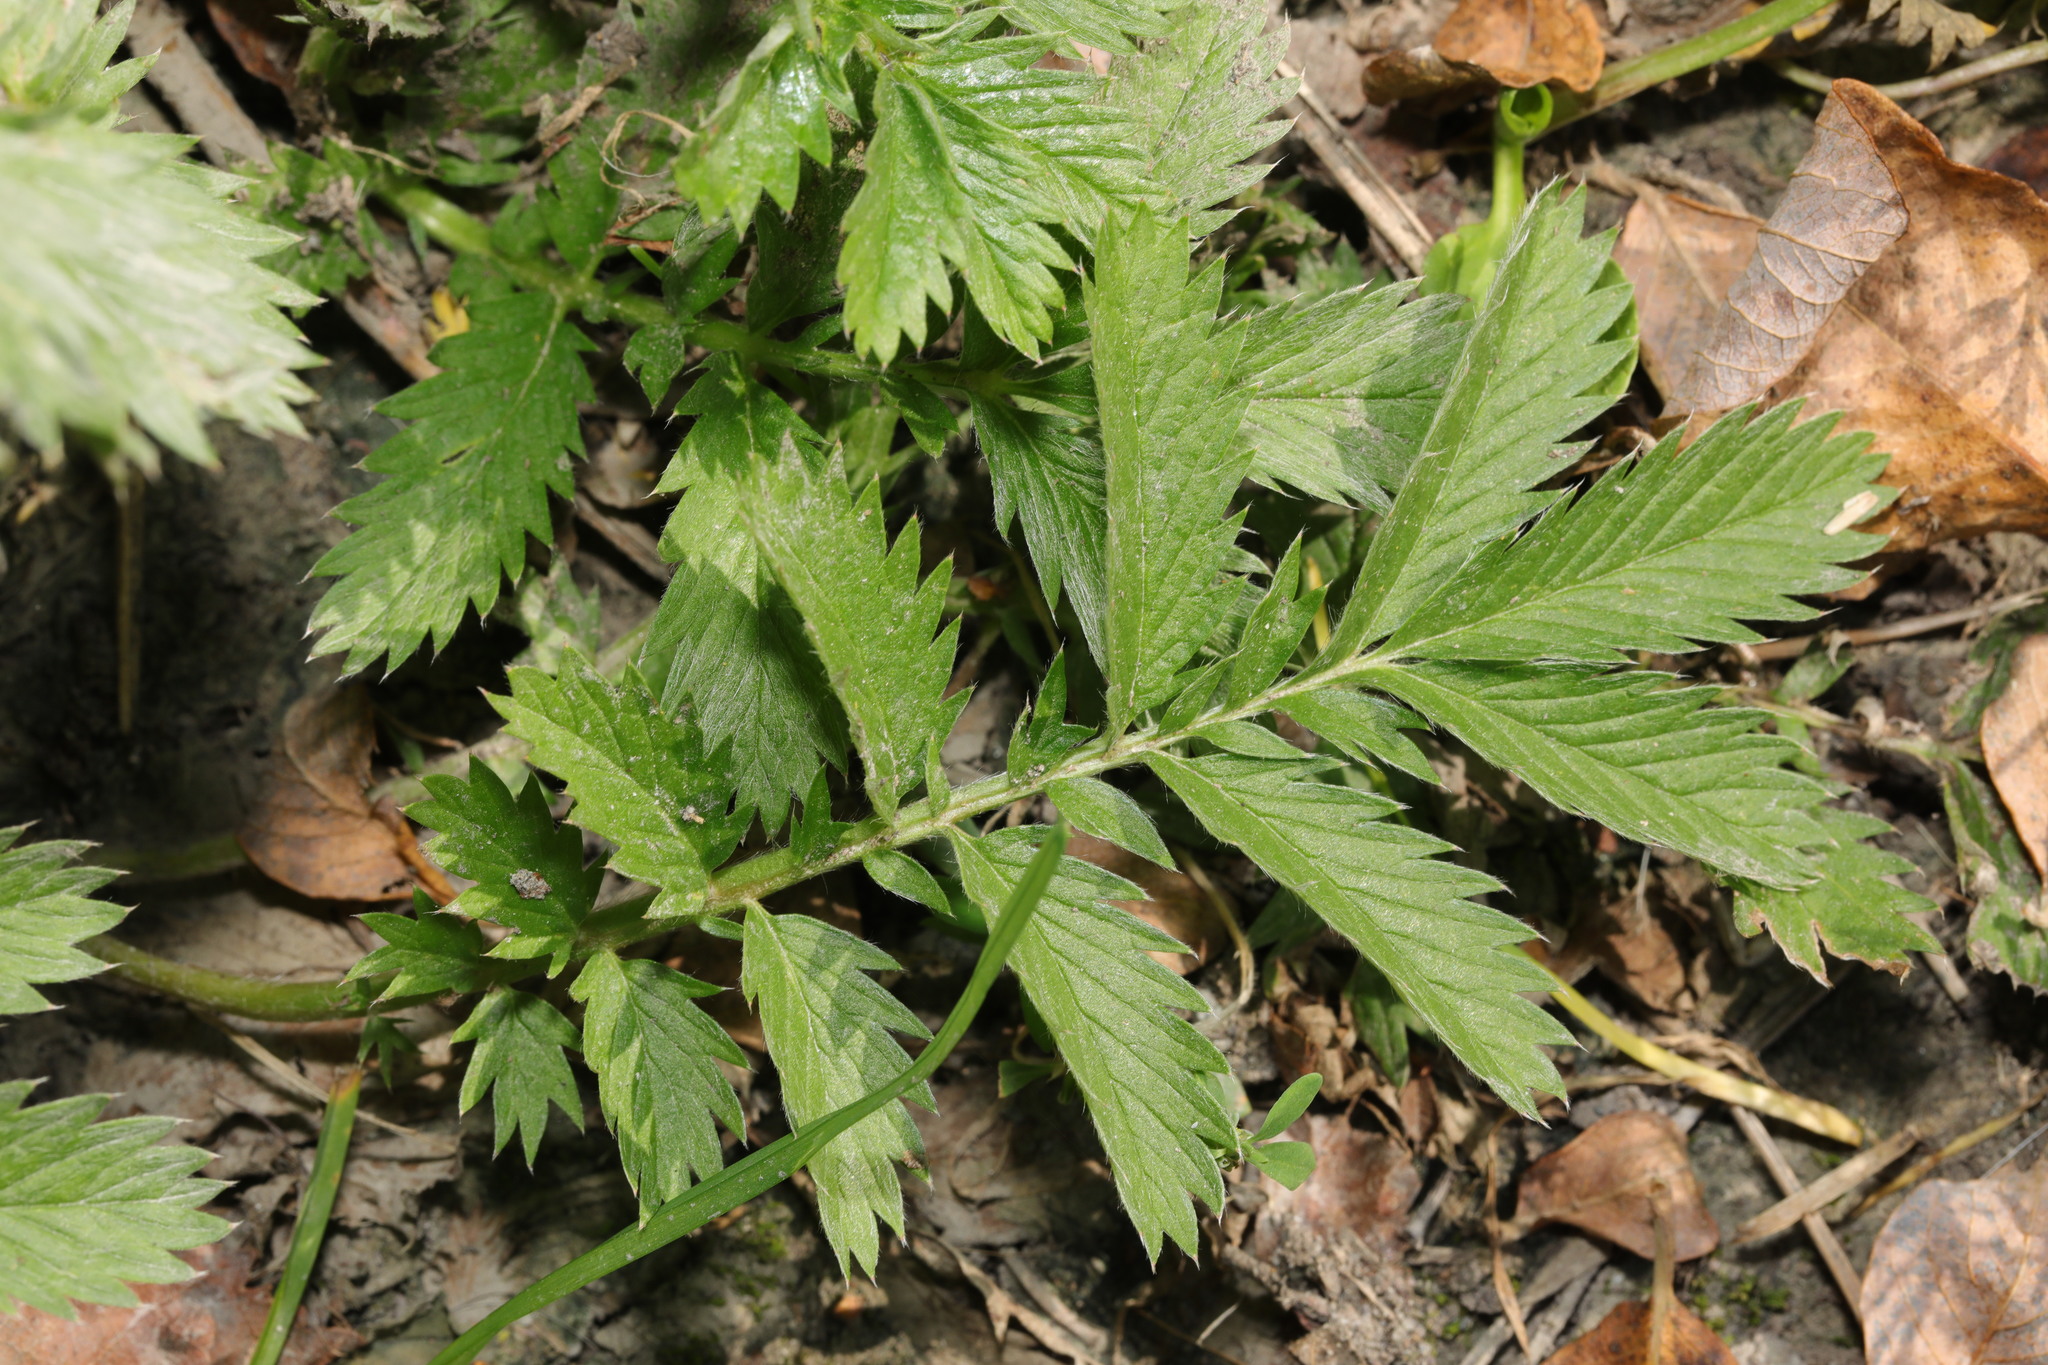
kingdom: Plantae
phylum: Tracheophyta
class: Magnoliopsida
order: Rosales
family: Rosaceae
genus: Argentina
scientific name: Argentina anserina
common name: Common silverweed
